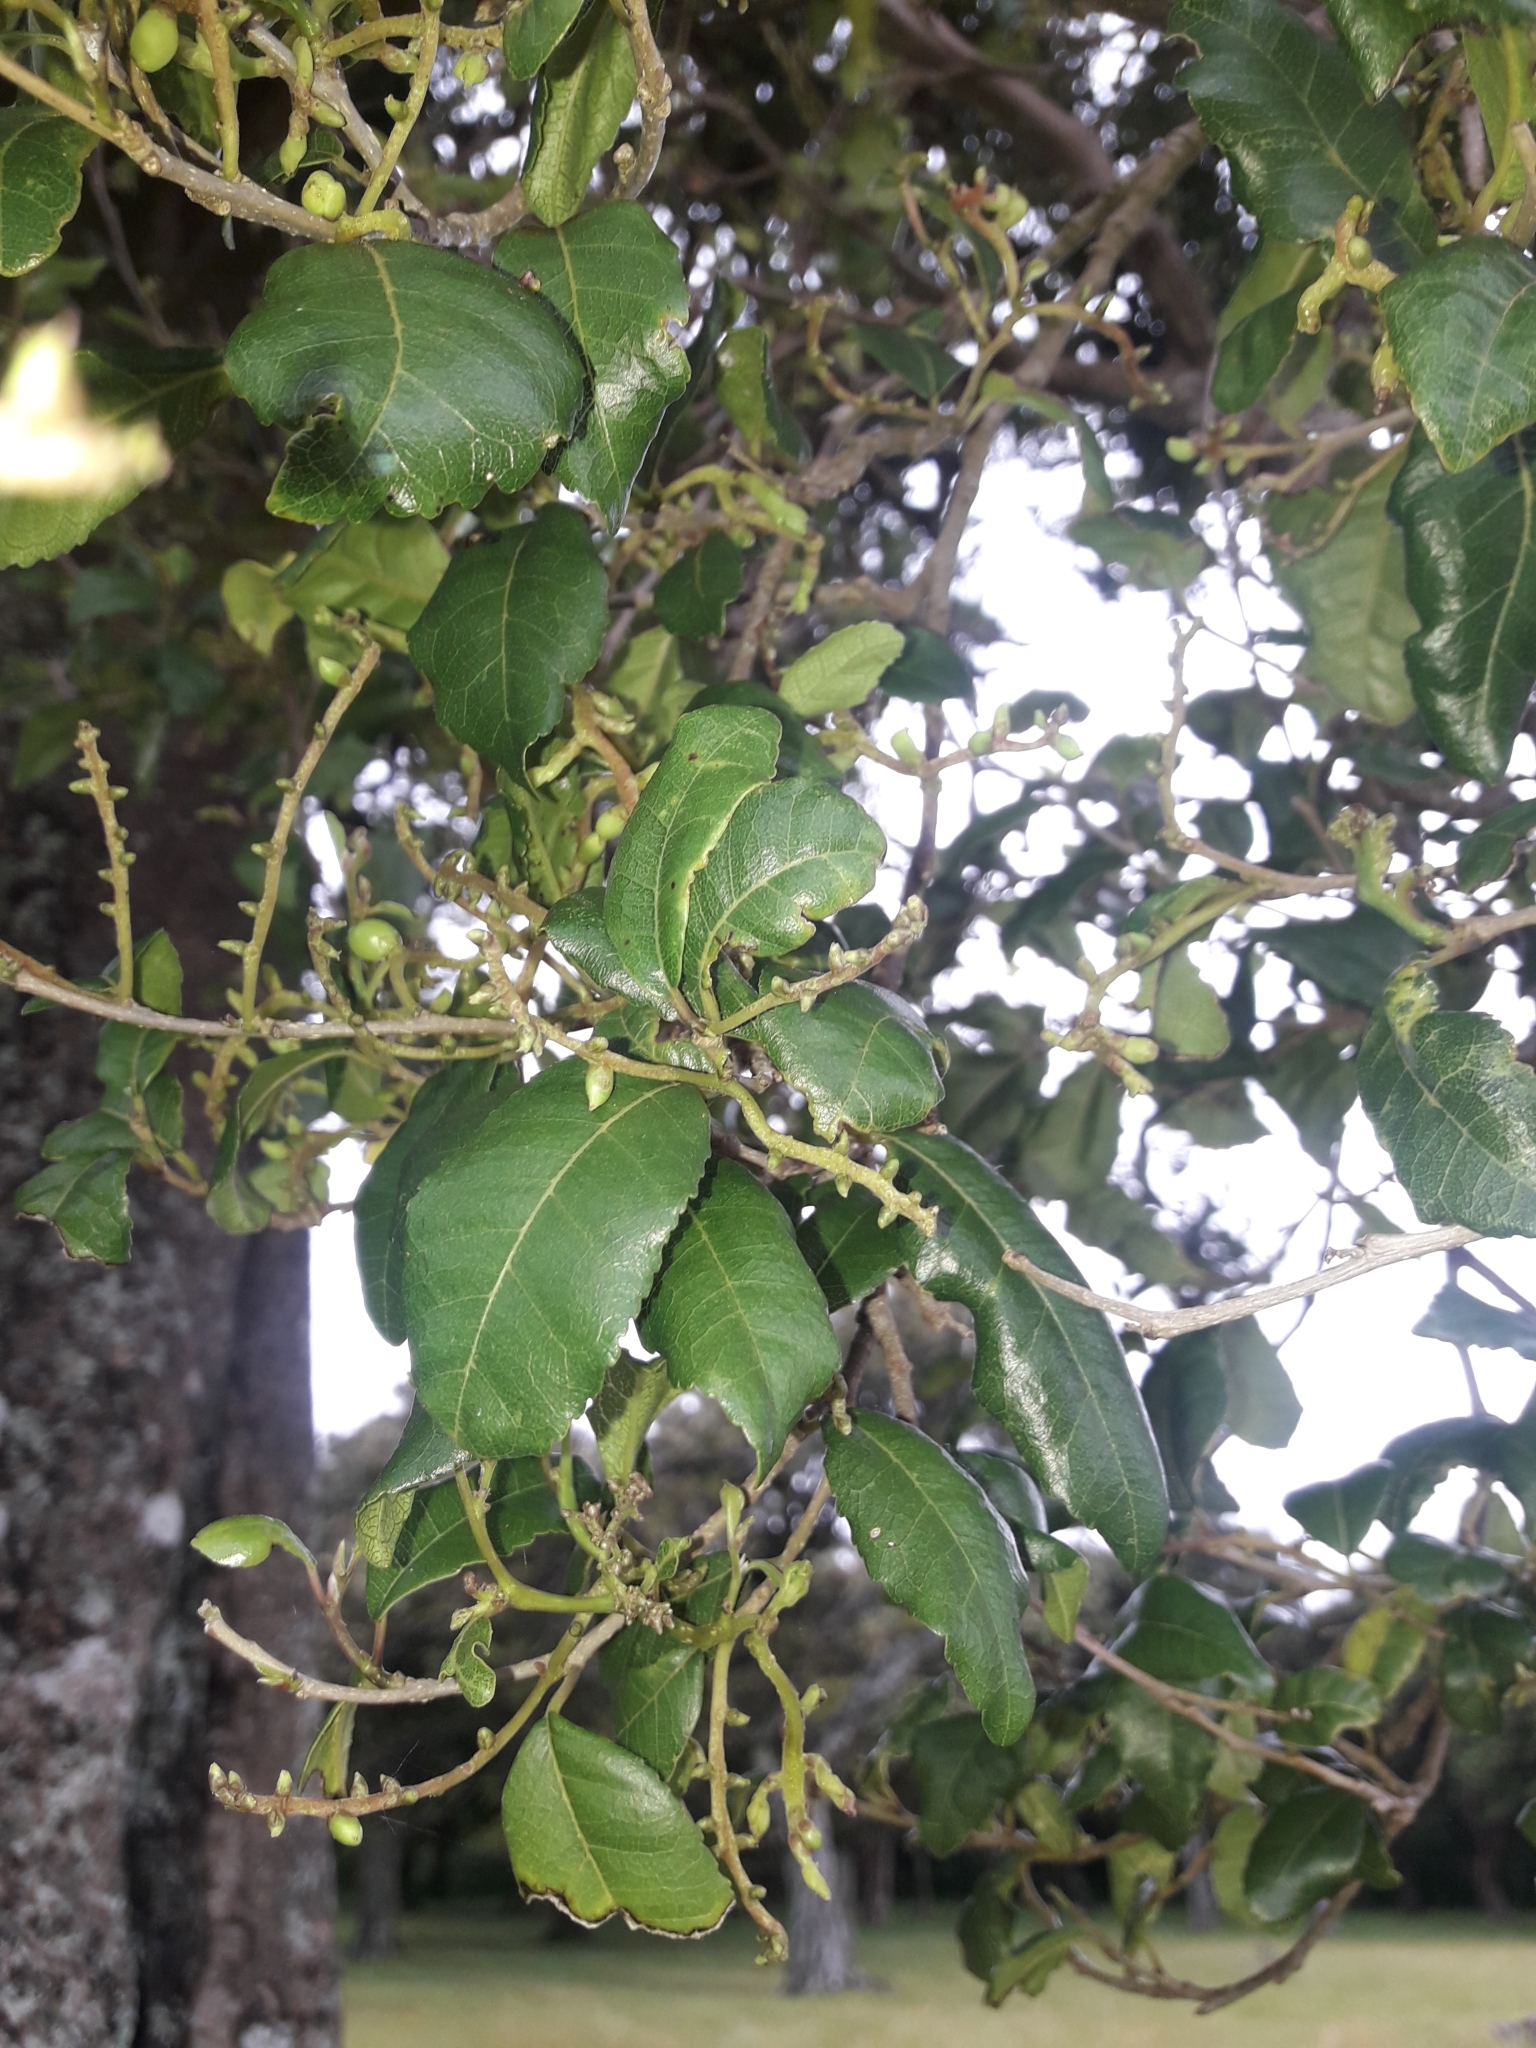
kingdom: Plantae
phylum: Tracheophyta
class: Magnoliopsida
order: Rosales
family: Moraceae
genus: Paratrophis
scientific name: Paratrophis banksii
